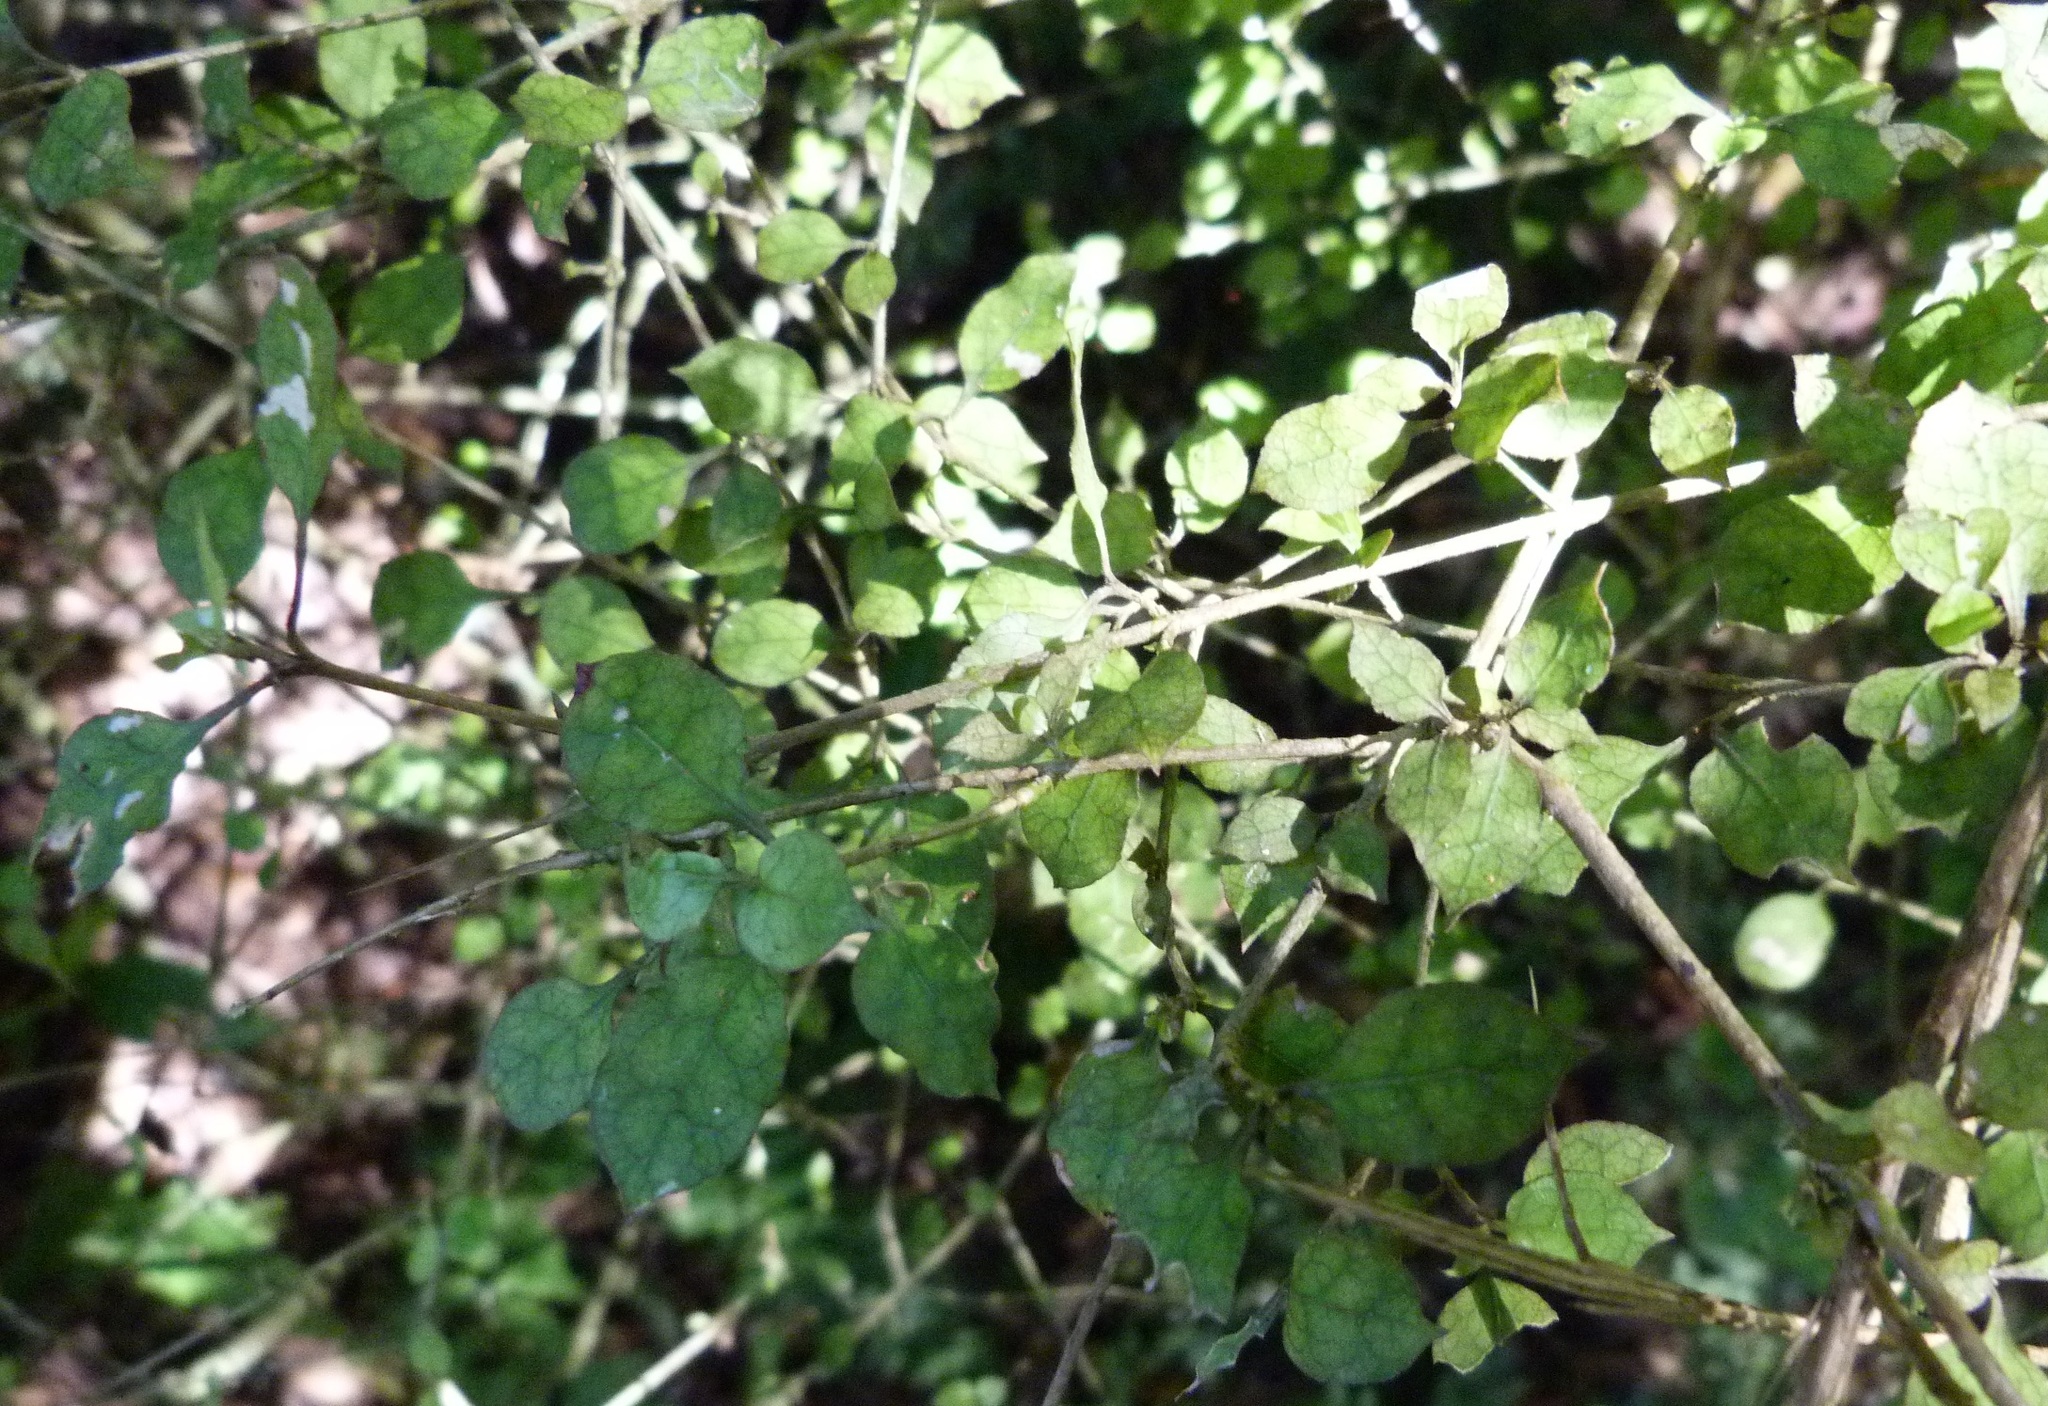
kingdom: Plantae
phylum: Tracheophyta
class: Magnoliopsida
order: Gentianales
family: Rubiaceae
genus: Coprosma
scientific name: Coprosma areolata
